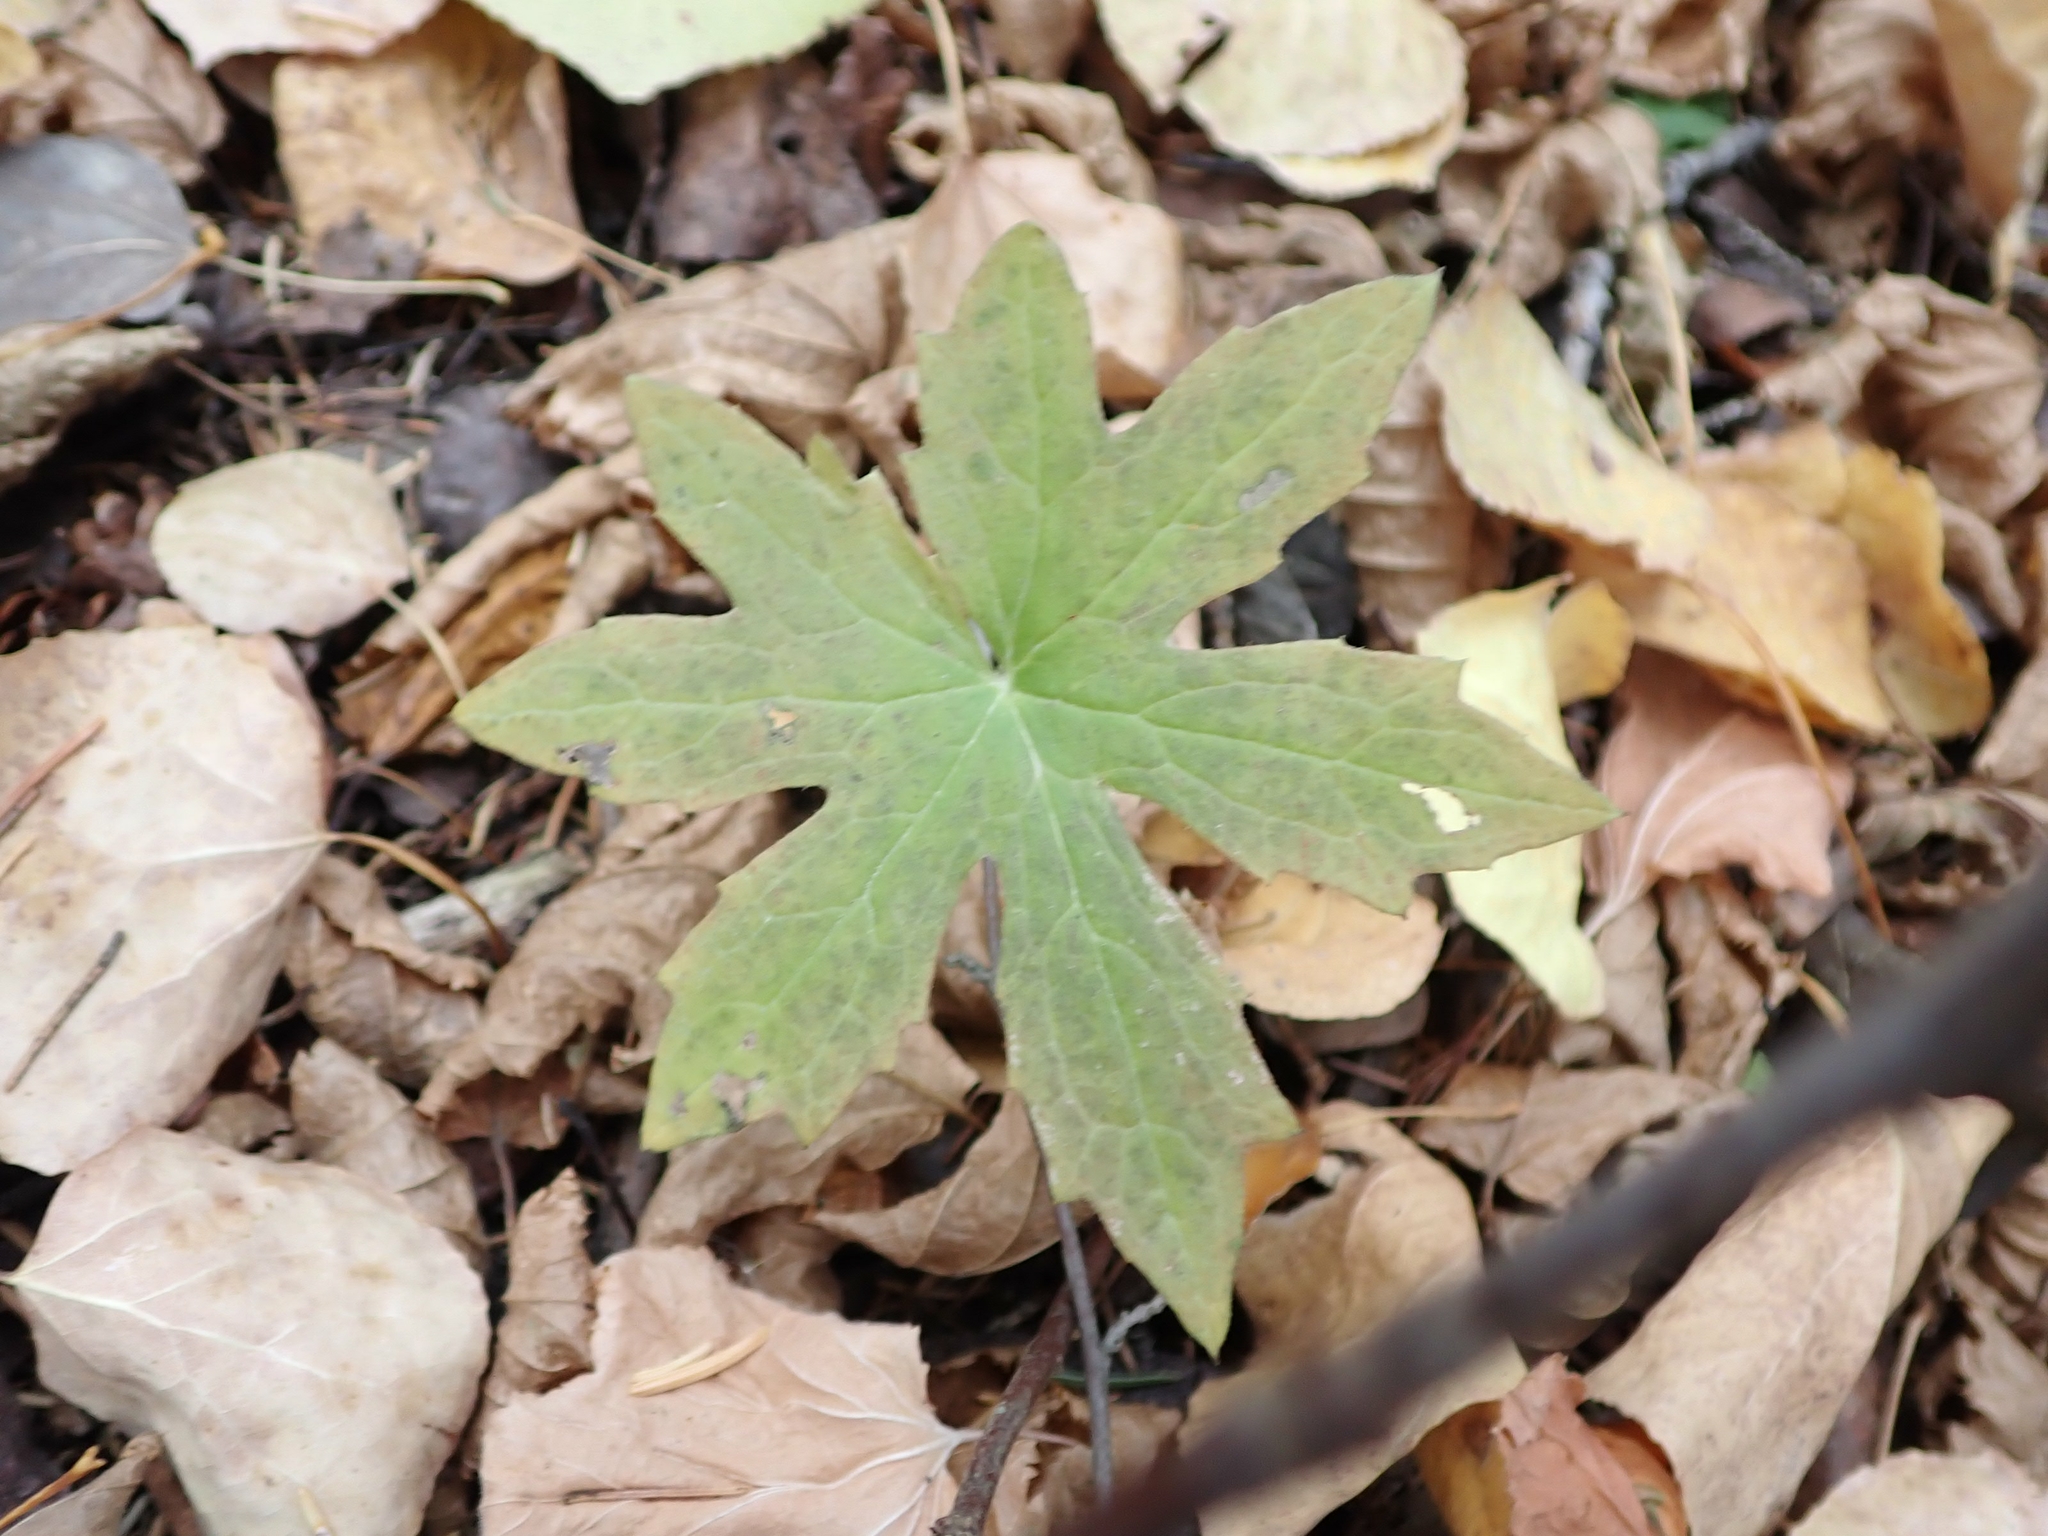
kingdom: Plantae
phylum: Tracheophyta
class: Magnoliopsida
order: Asterales
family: Asteraceae
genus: Petasites
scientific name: Petasites frigidus
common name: Arctic butterbur
